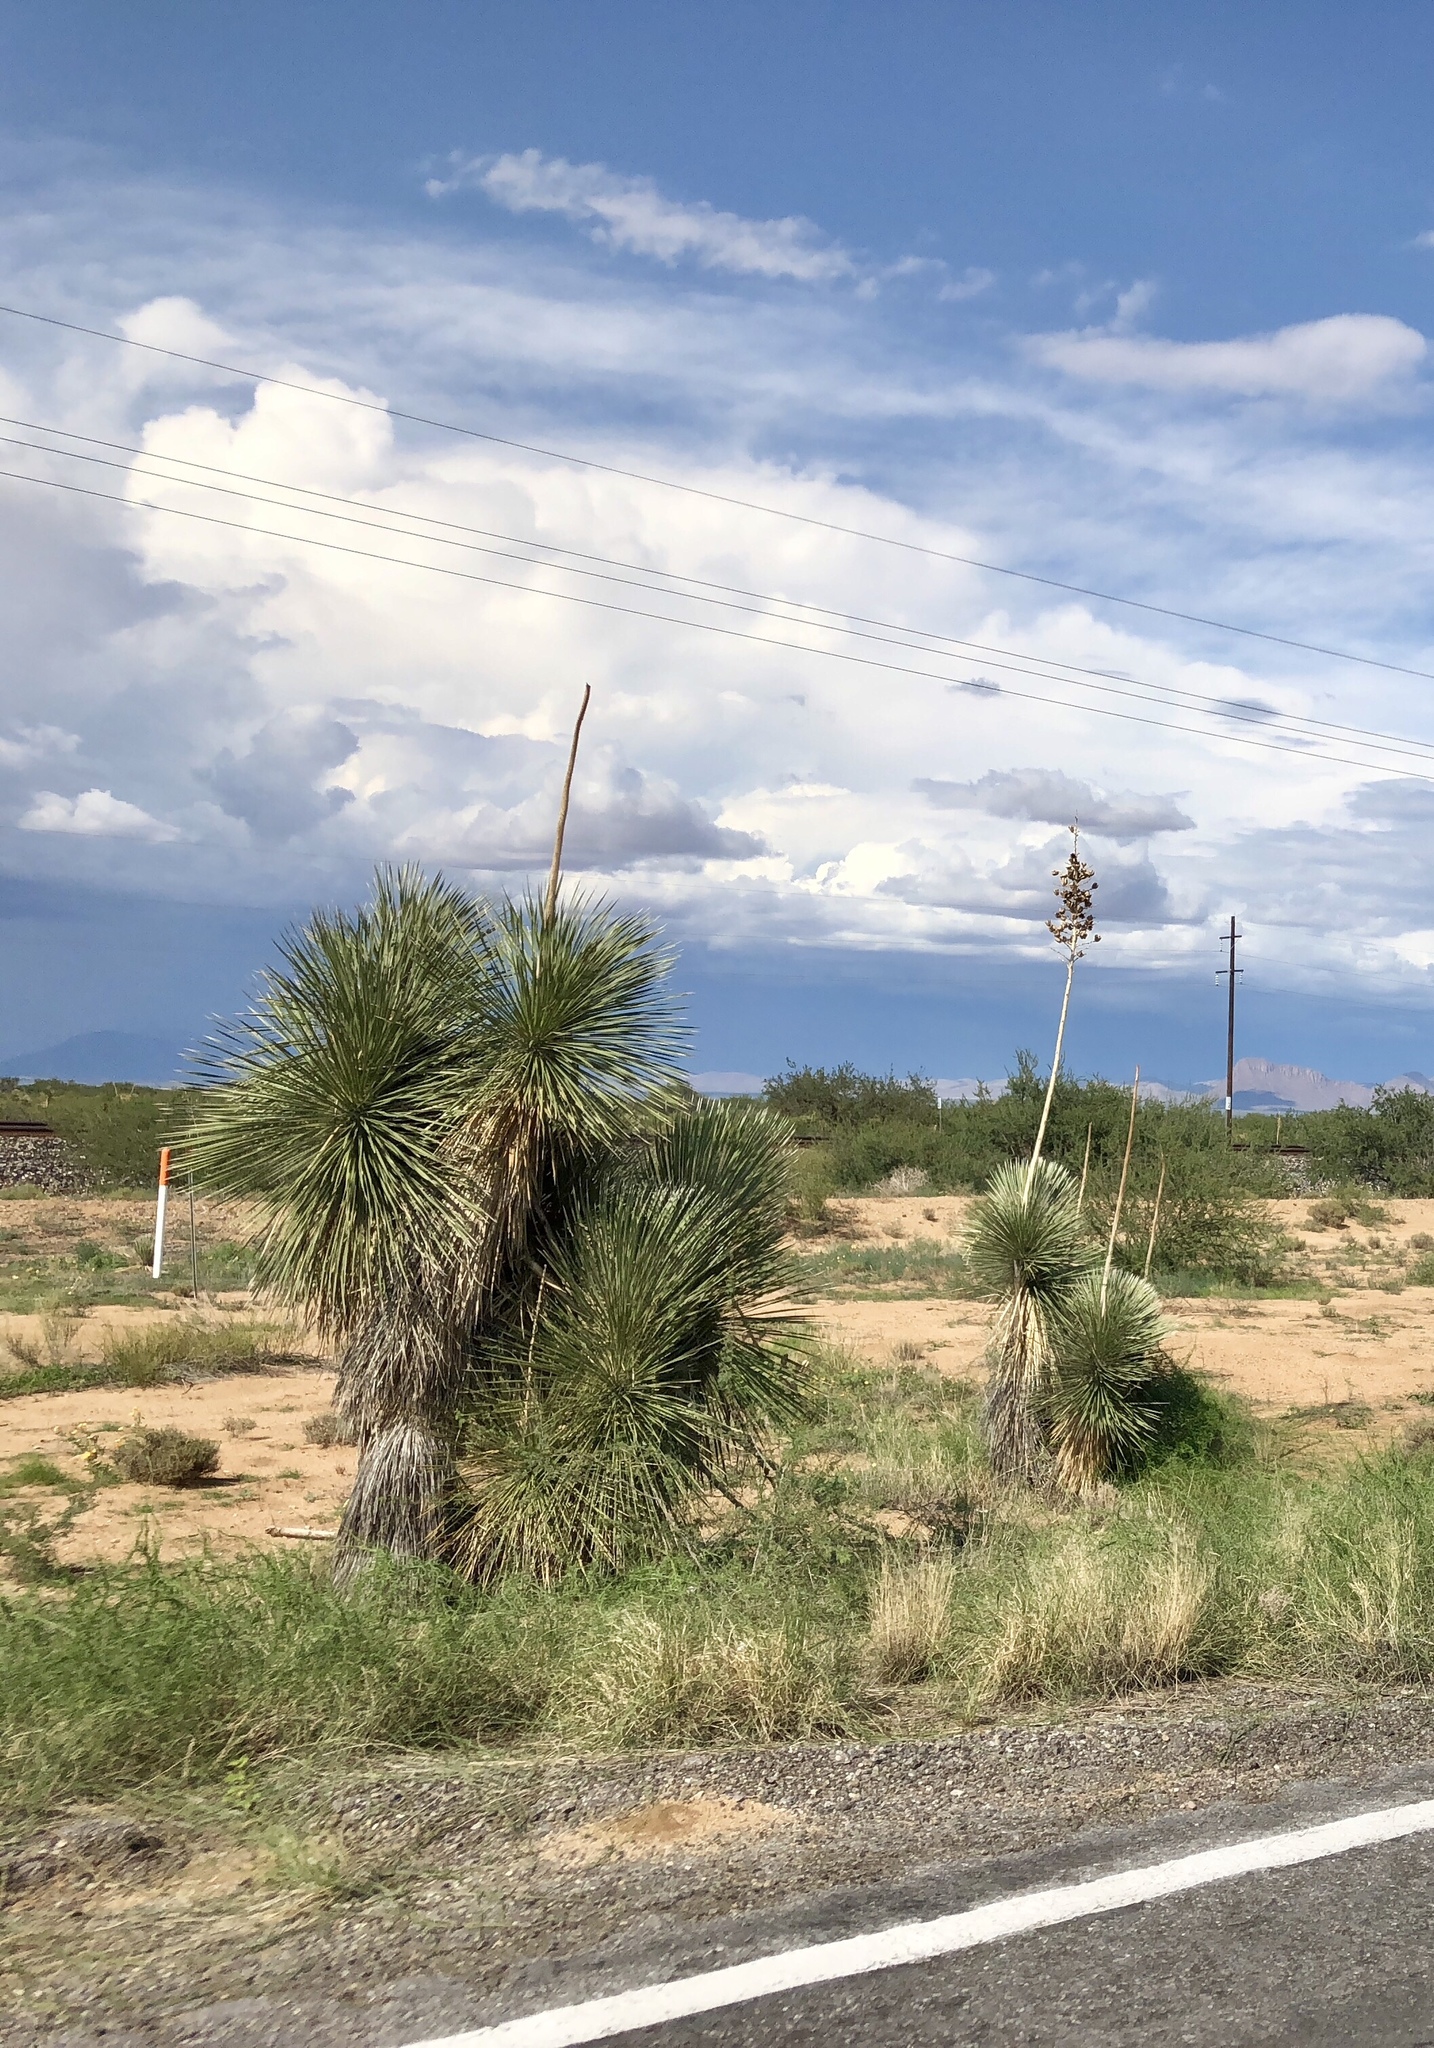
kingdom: Plantae
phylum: Tracheophyta
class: Liliopsida
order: Asparagales
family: Asparagaceae
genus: Yucca
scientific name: Yucca elata
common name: Palmella
